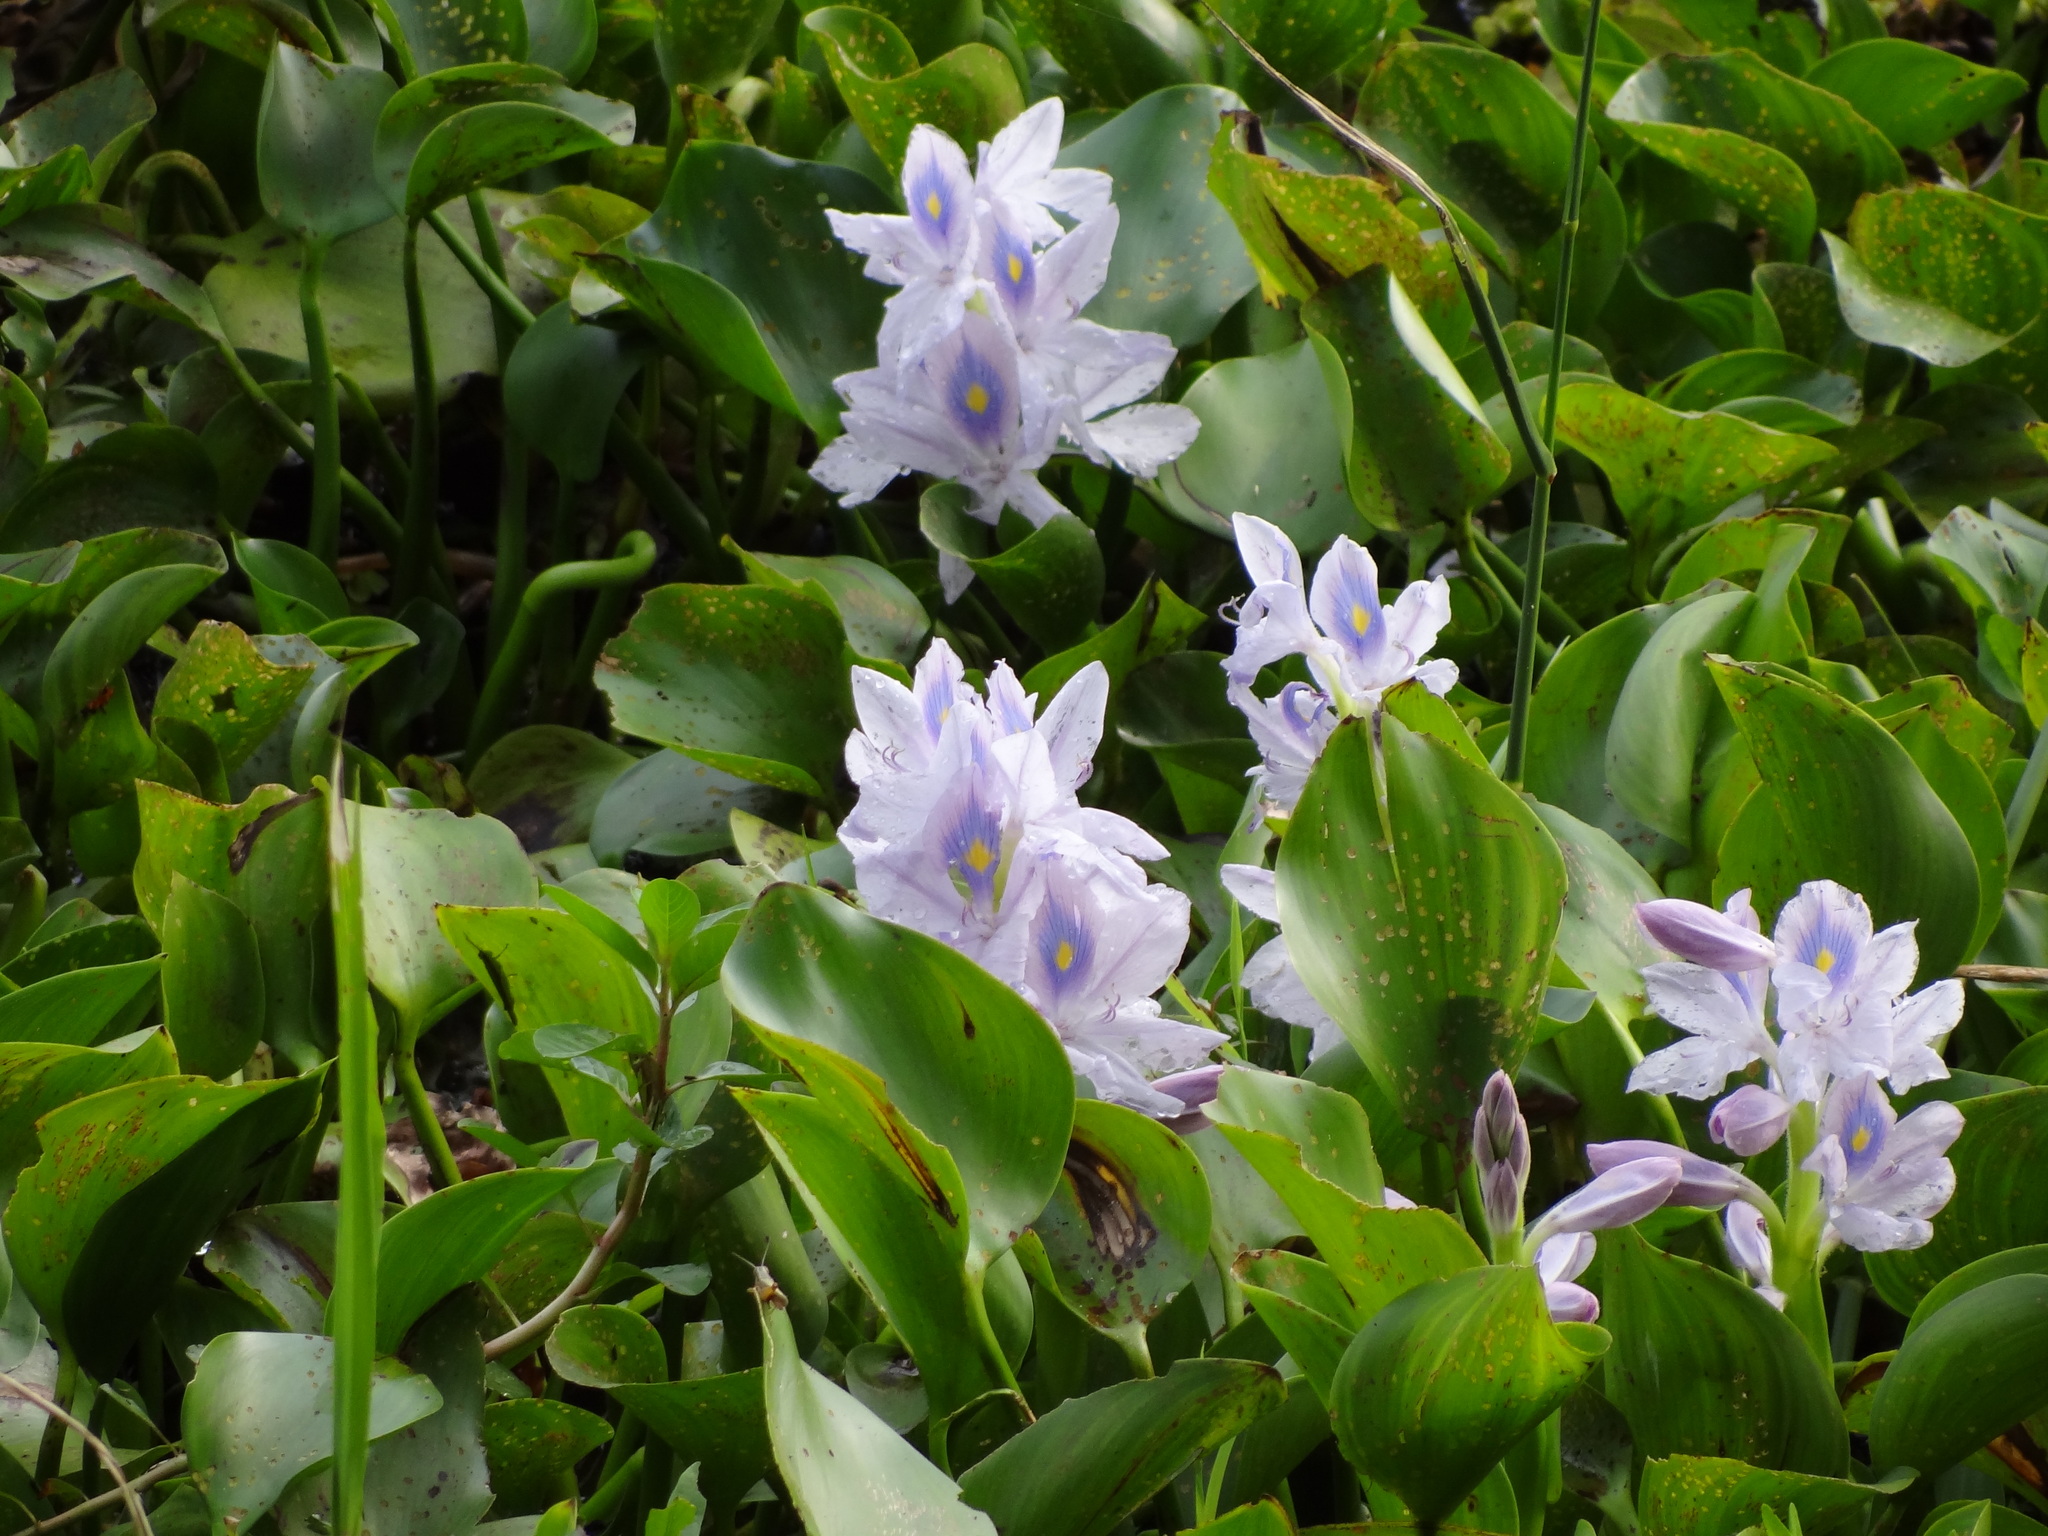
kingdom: Plantae
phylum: Tracheophyta
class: Liliopsida
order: Commelinales
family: Pontederiaceae
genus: Pontederia
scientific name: Pontederia crassipes
